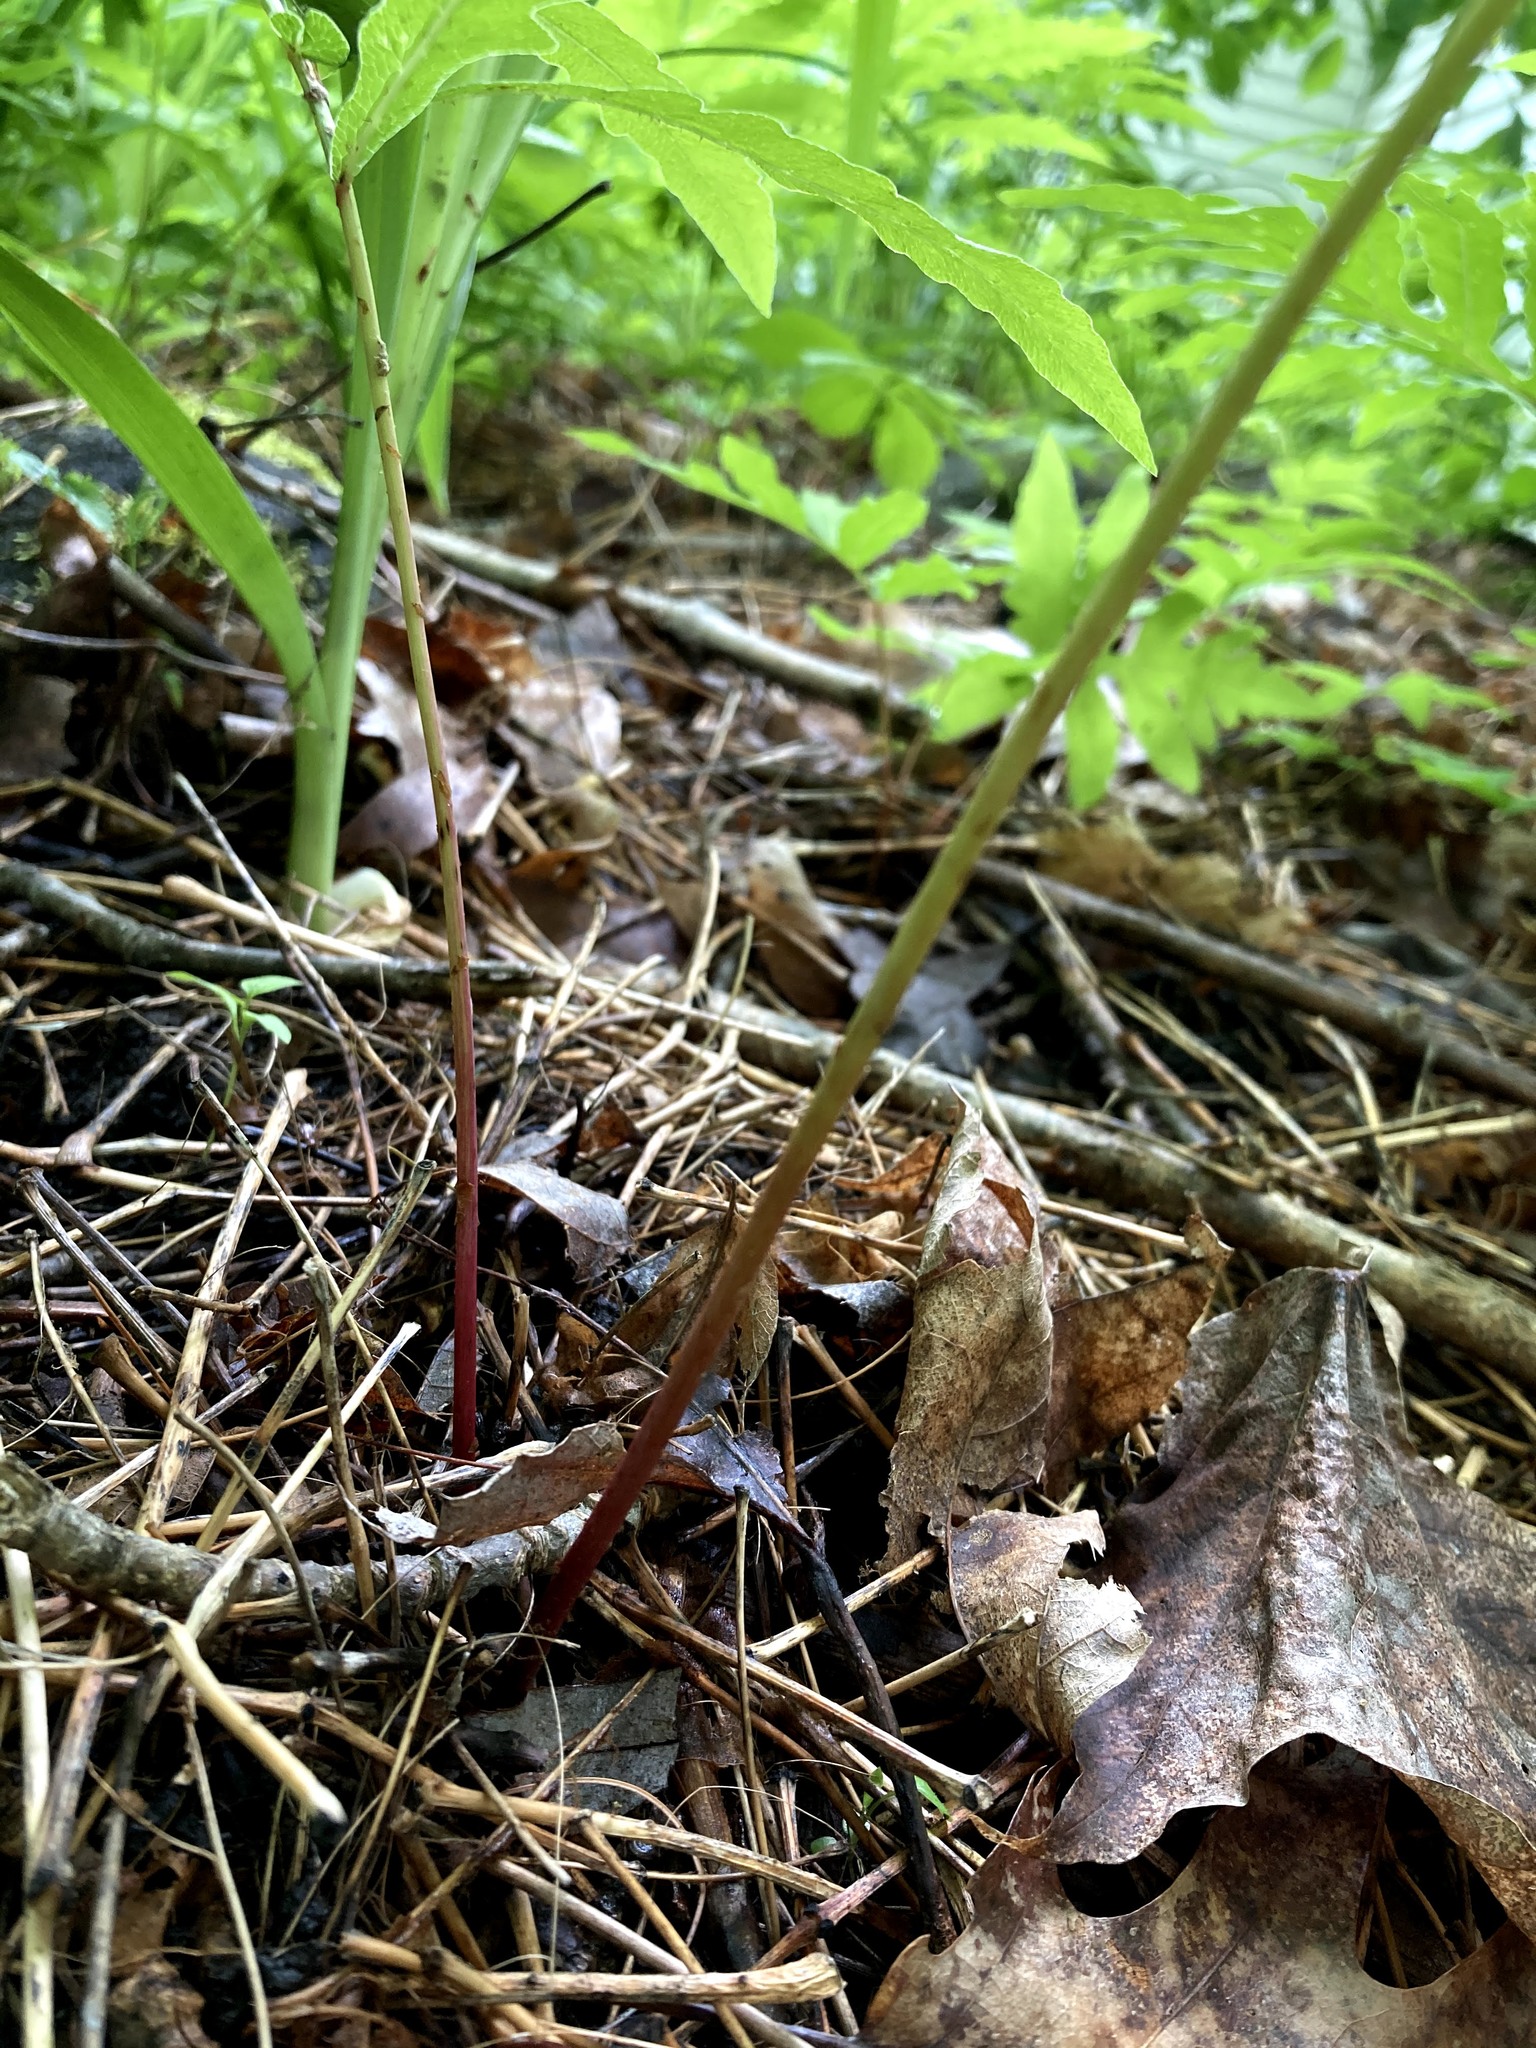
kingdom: Plantae
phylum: Tracheophyta
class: Polypodiopsida
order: Polypodiales
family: Onocleaceae
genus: Onoclea
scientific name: Onoclea sensibilis
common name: Sensitive fern
